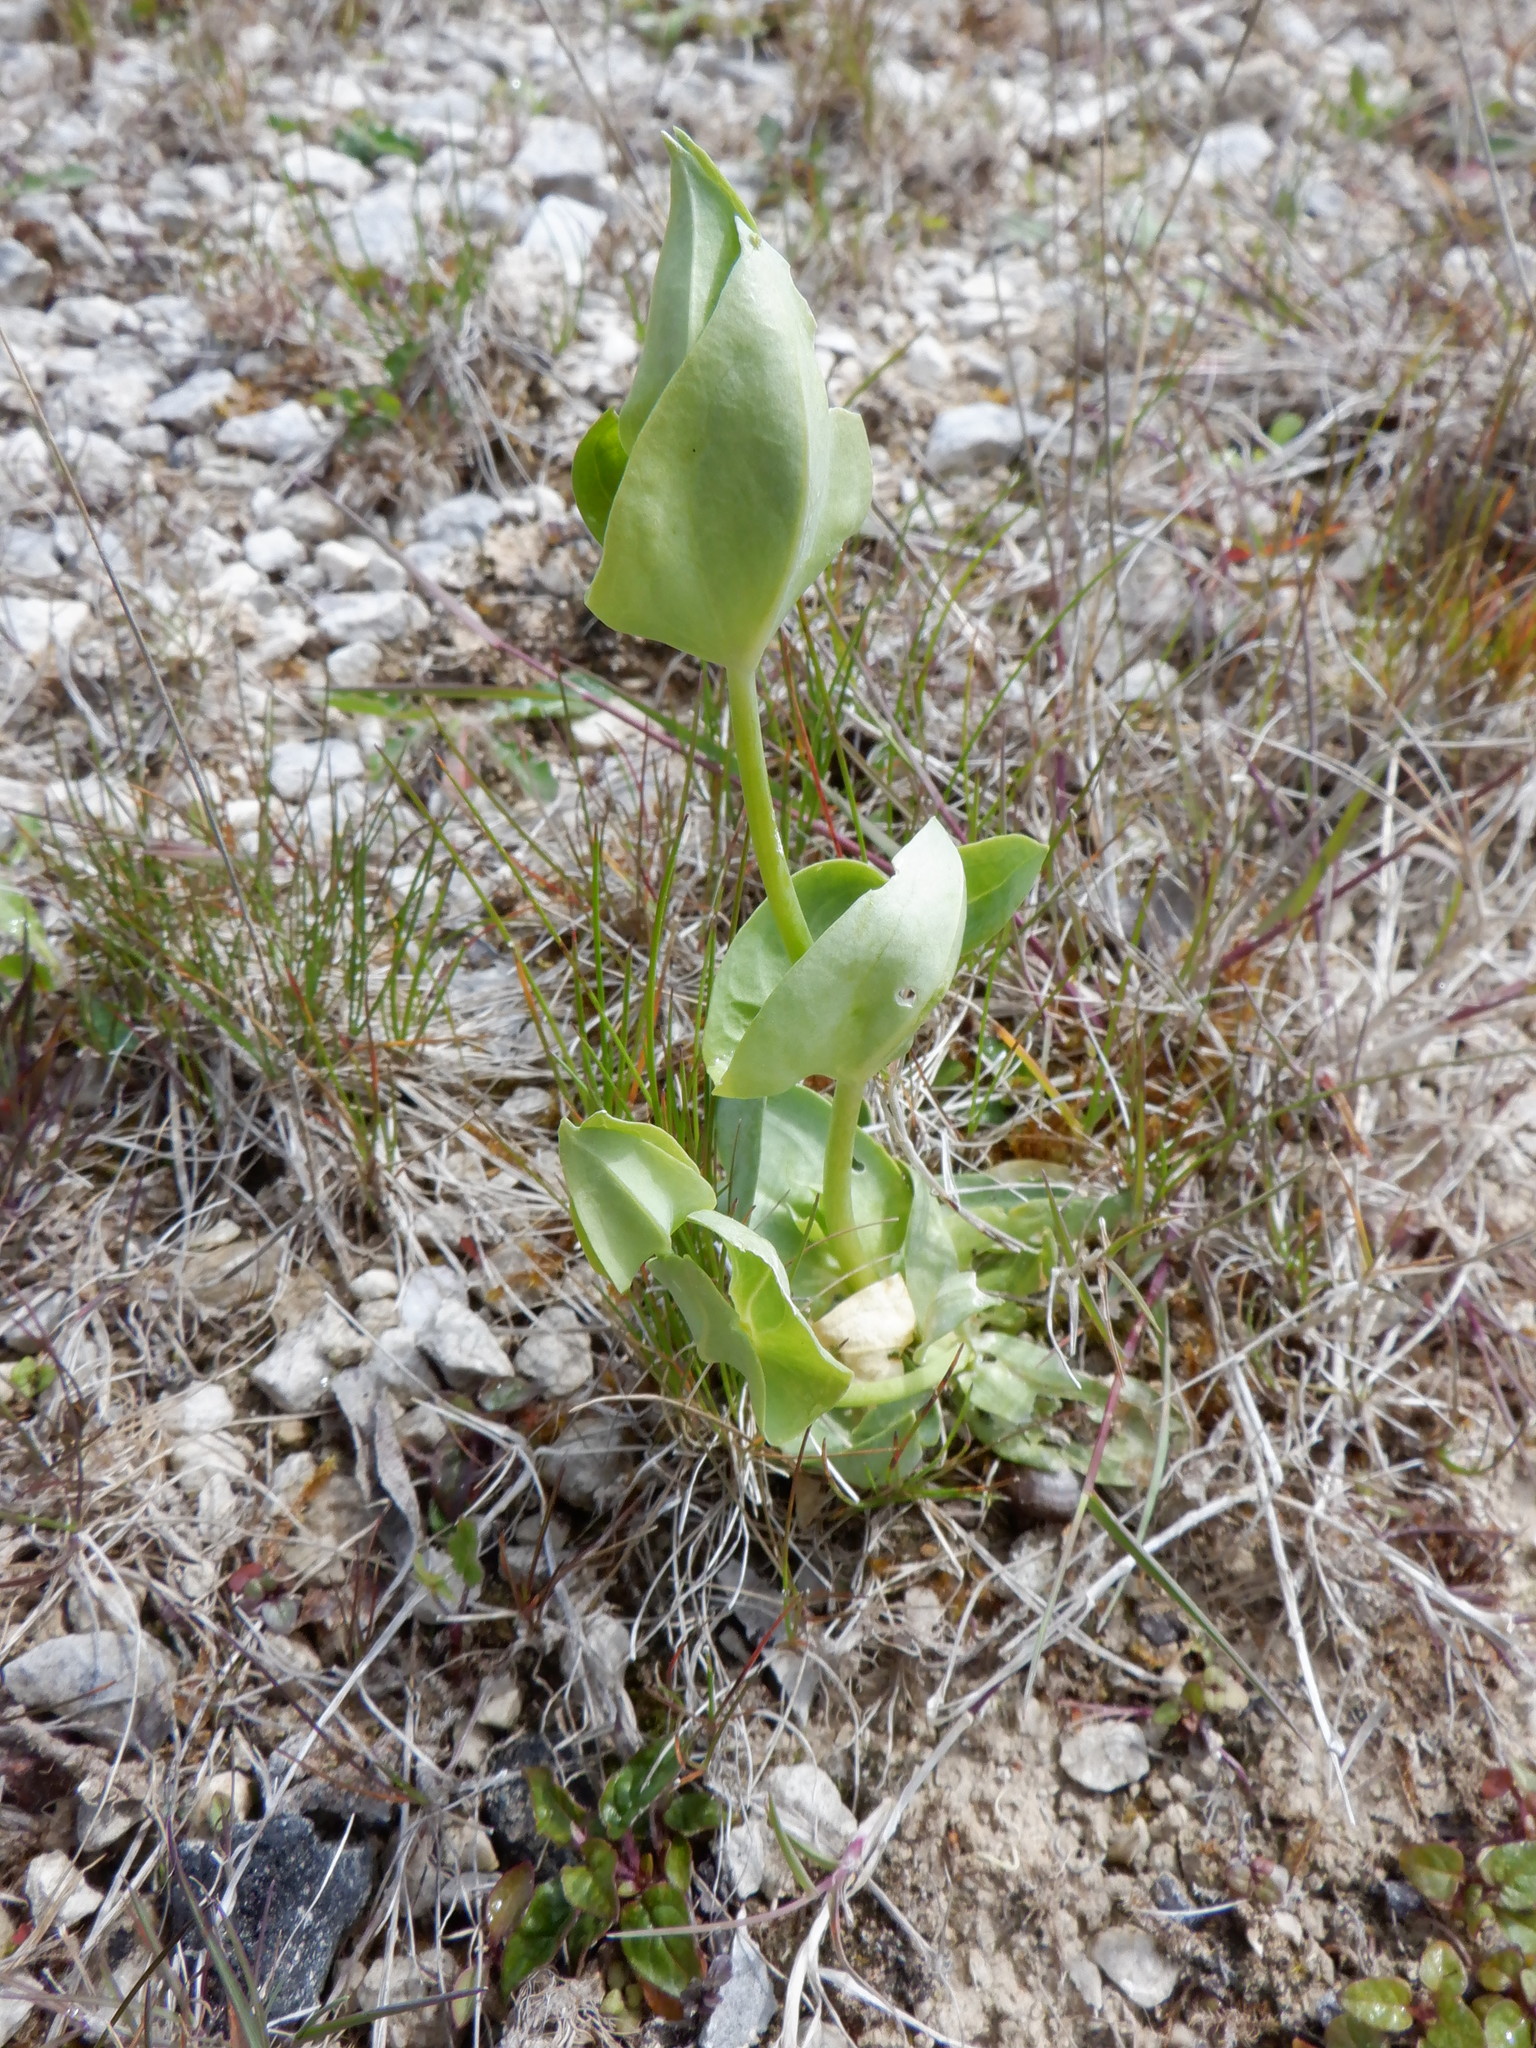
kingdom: Plantae
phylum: Tracheophyta
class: Magnoliopsida
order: Gentianales
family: Gentianaceae
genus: Blackstonia
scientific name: Blackstonia perfoliata
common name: Yellow-wort
